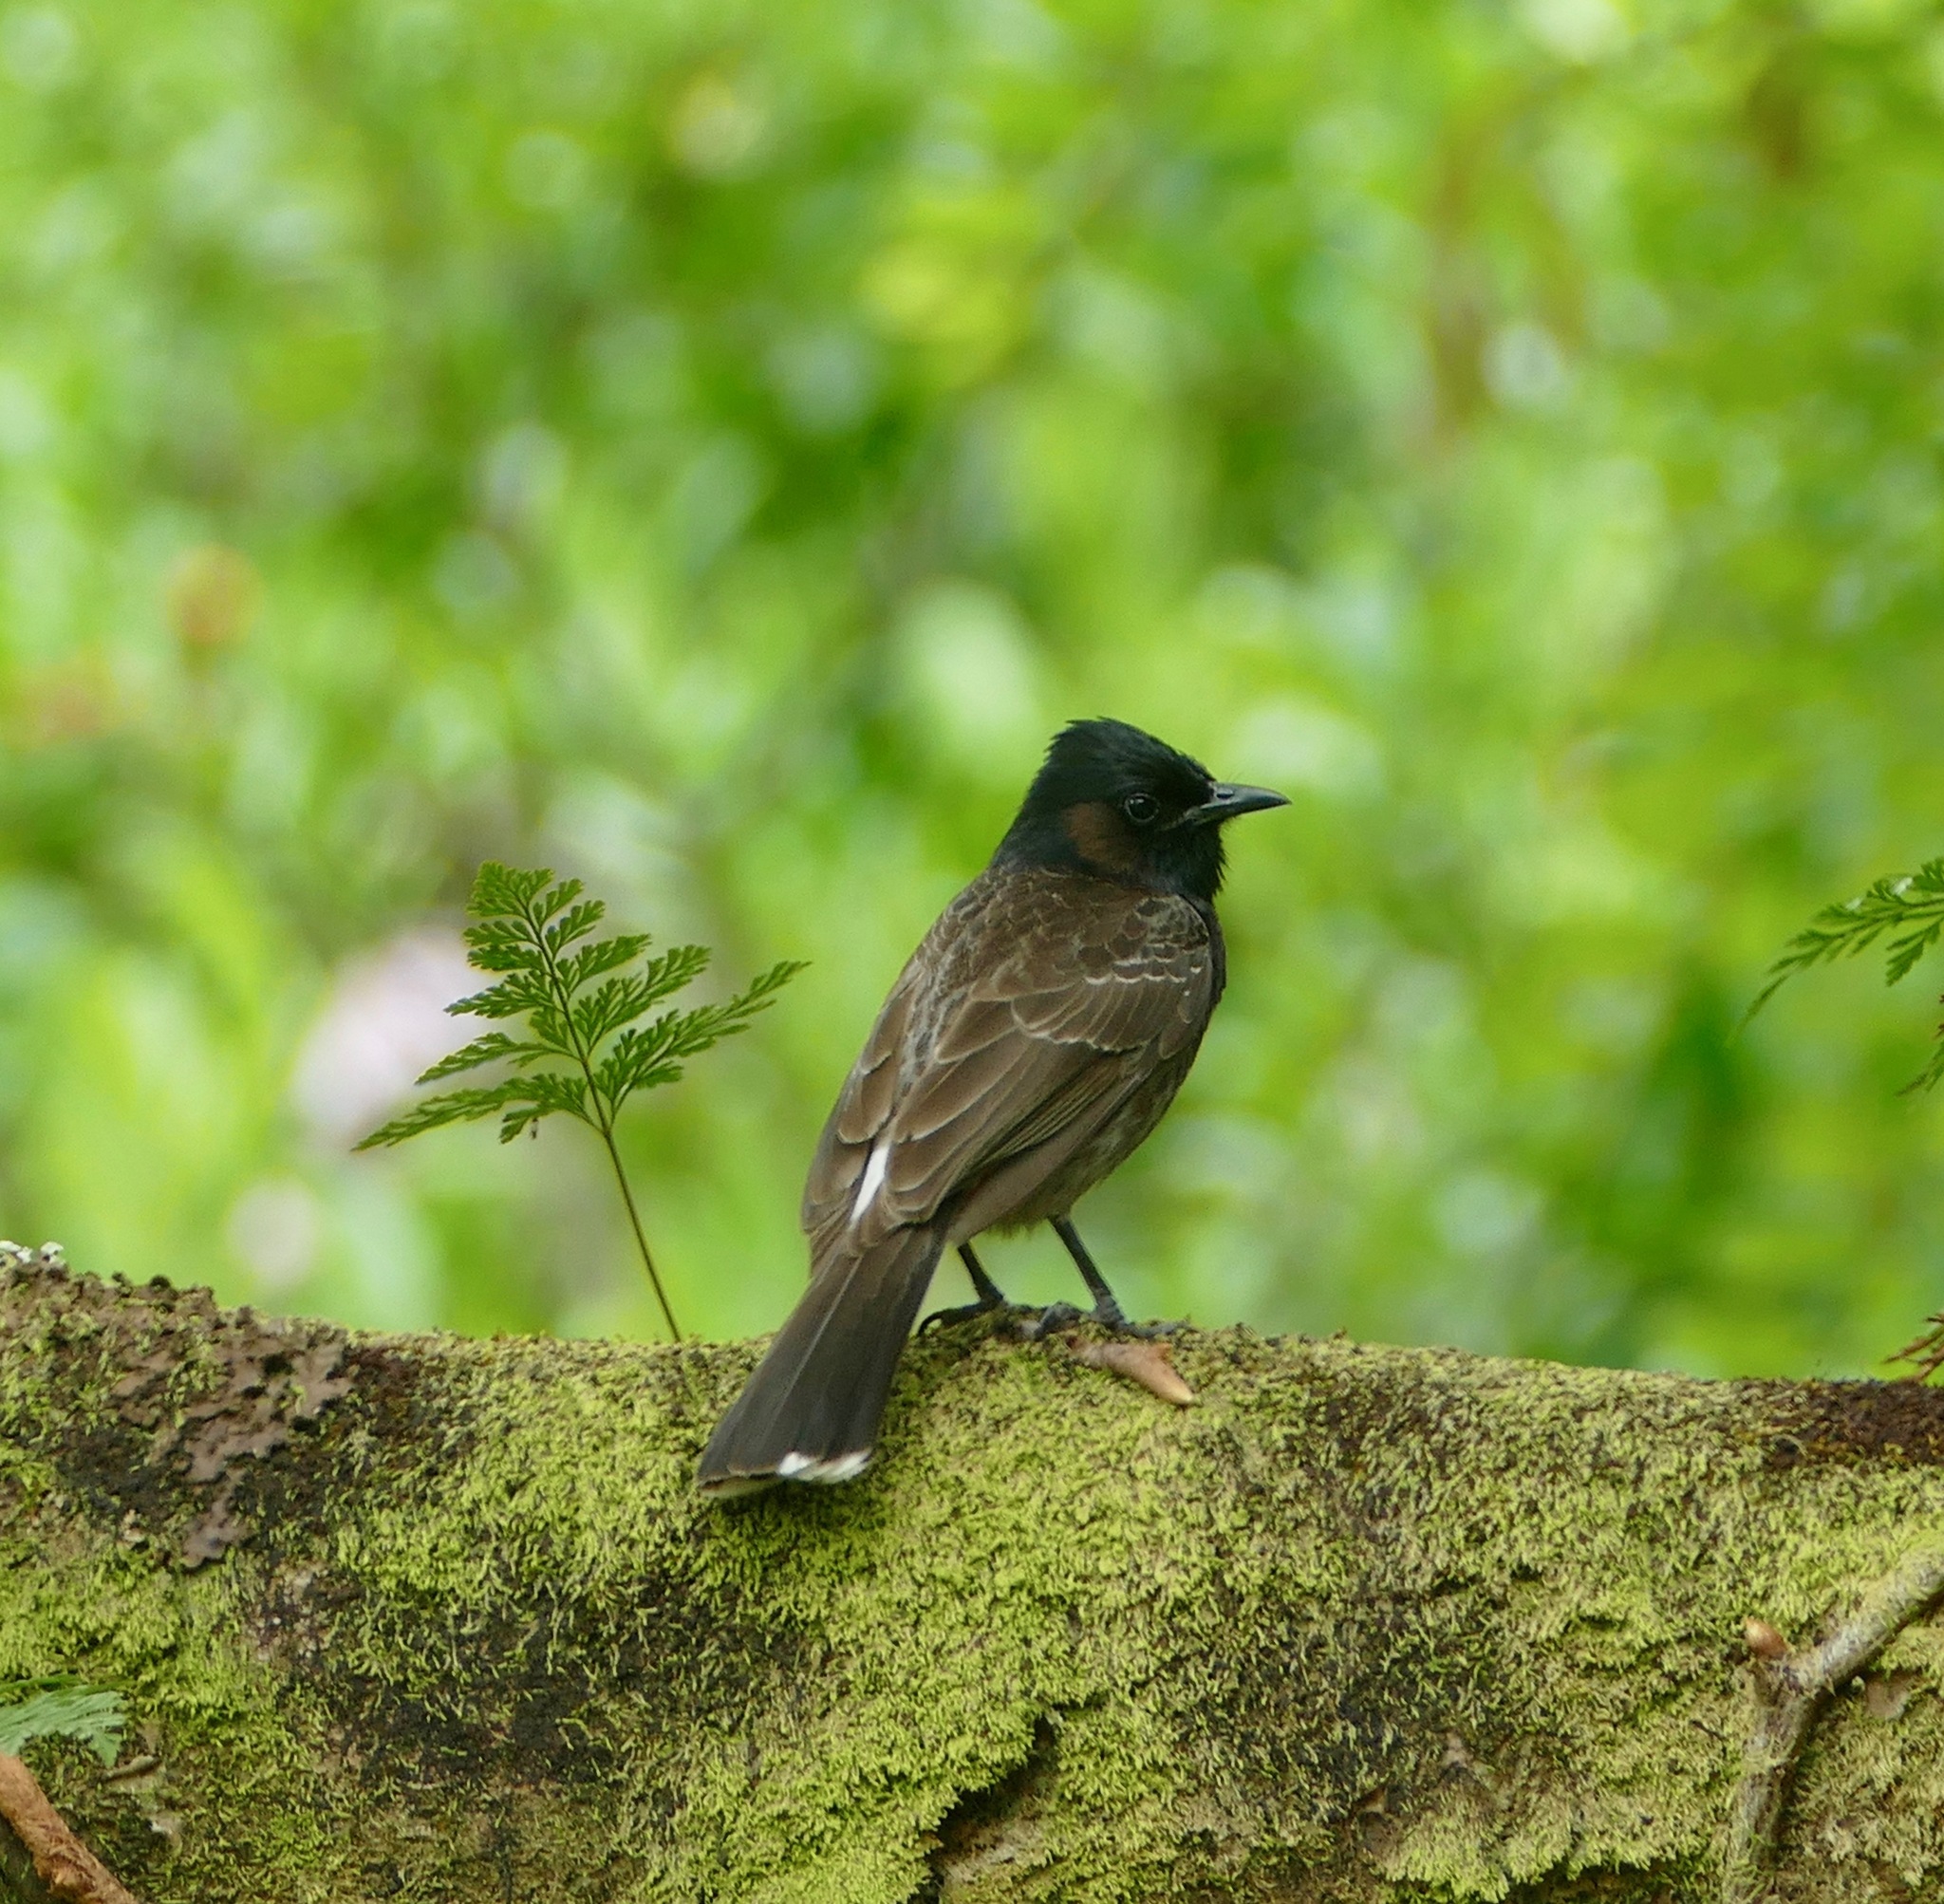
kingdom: Animalia
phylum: Chordata
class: Aves
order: Passeriformes
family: Pycnonotidae
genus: Pycnonotus
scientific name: Pycnonotus cafer
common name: Red-vented bulbul
